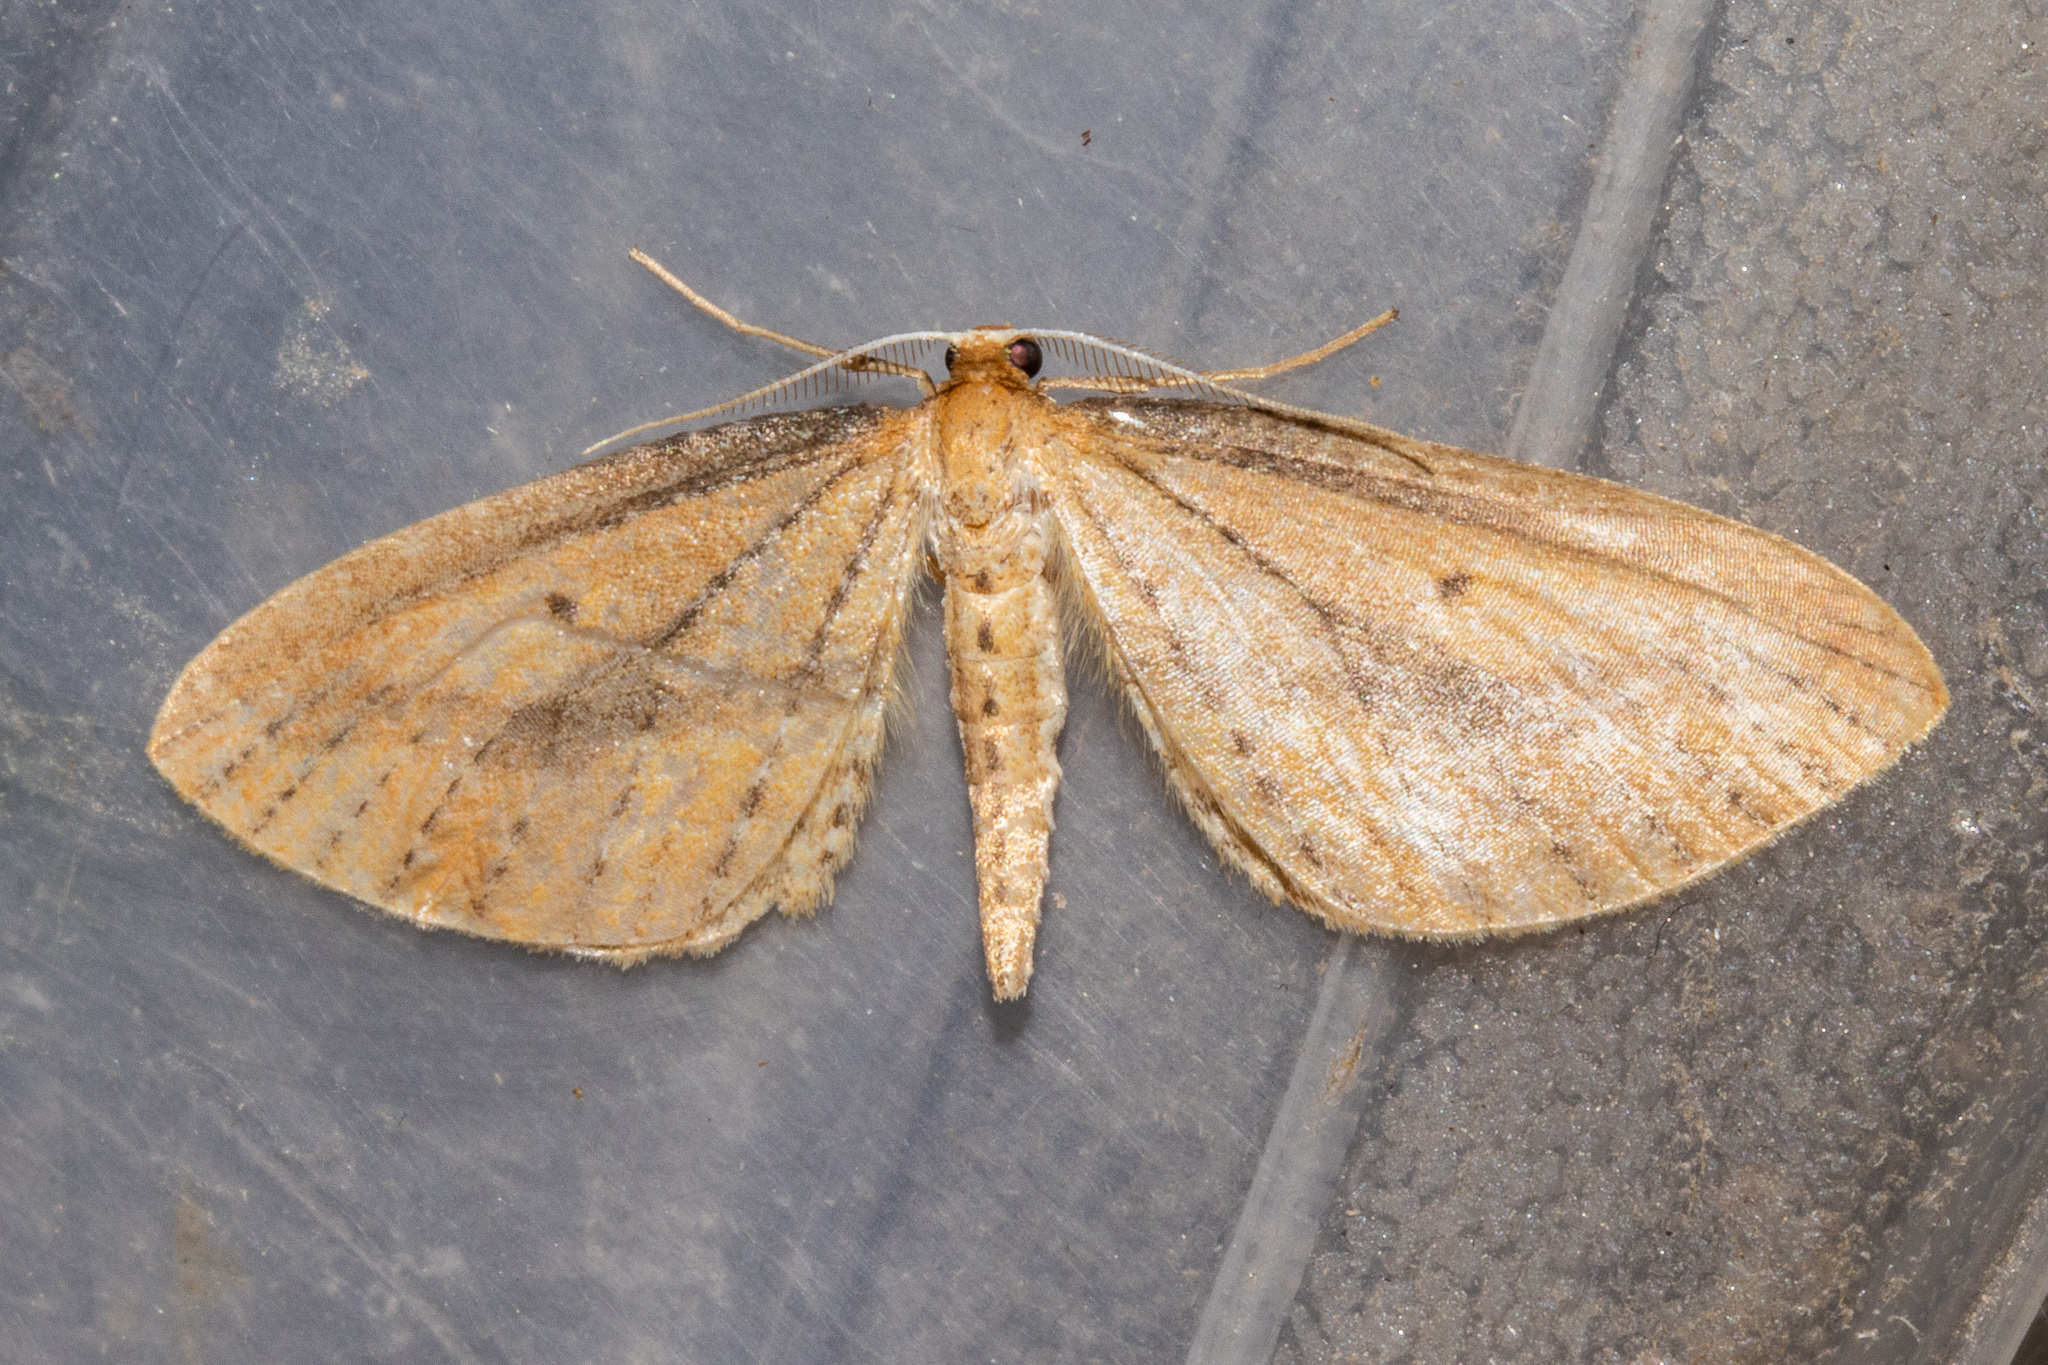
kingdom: Animalia
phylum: Arthropoda
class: Insecta
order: Lepidoptera
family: Geometridae
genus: Epiphryne
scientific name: Epiphryne charidema
